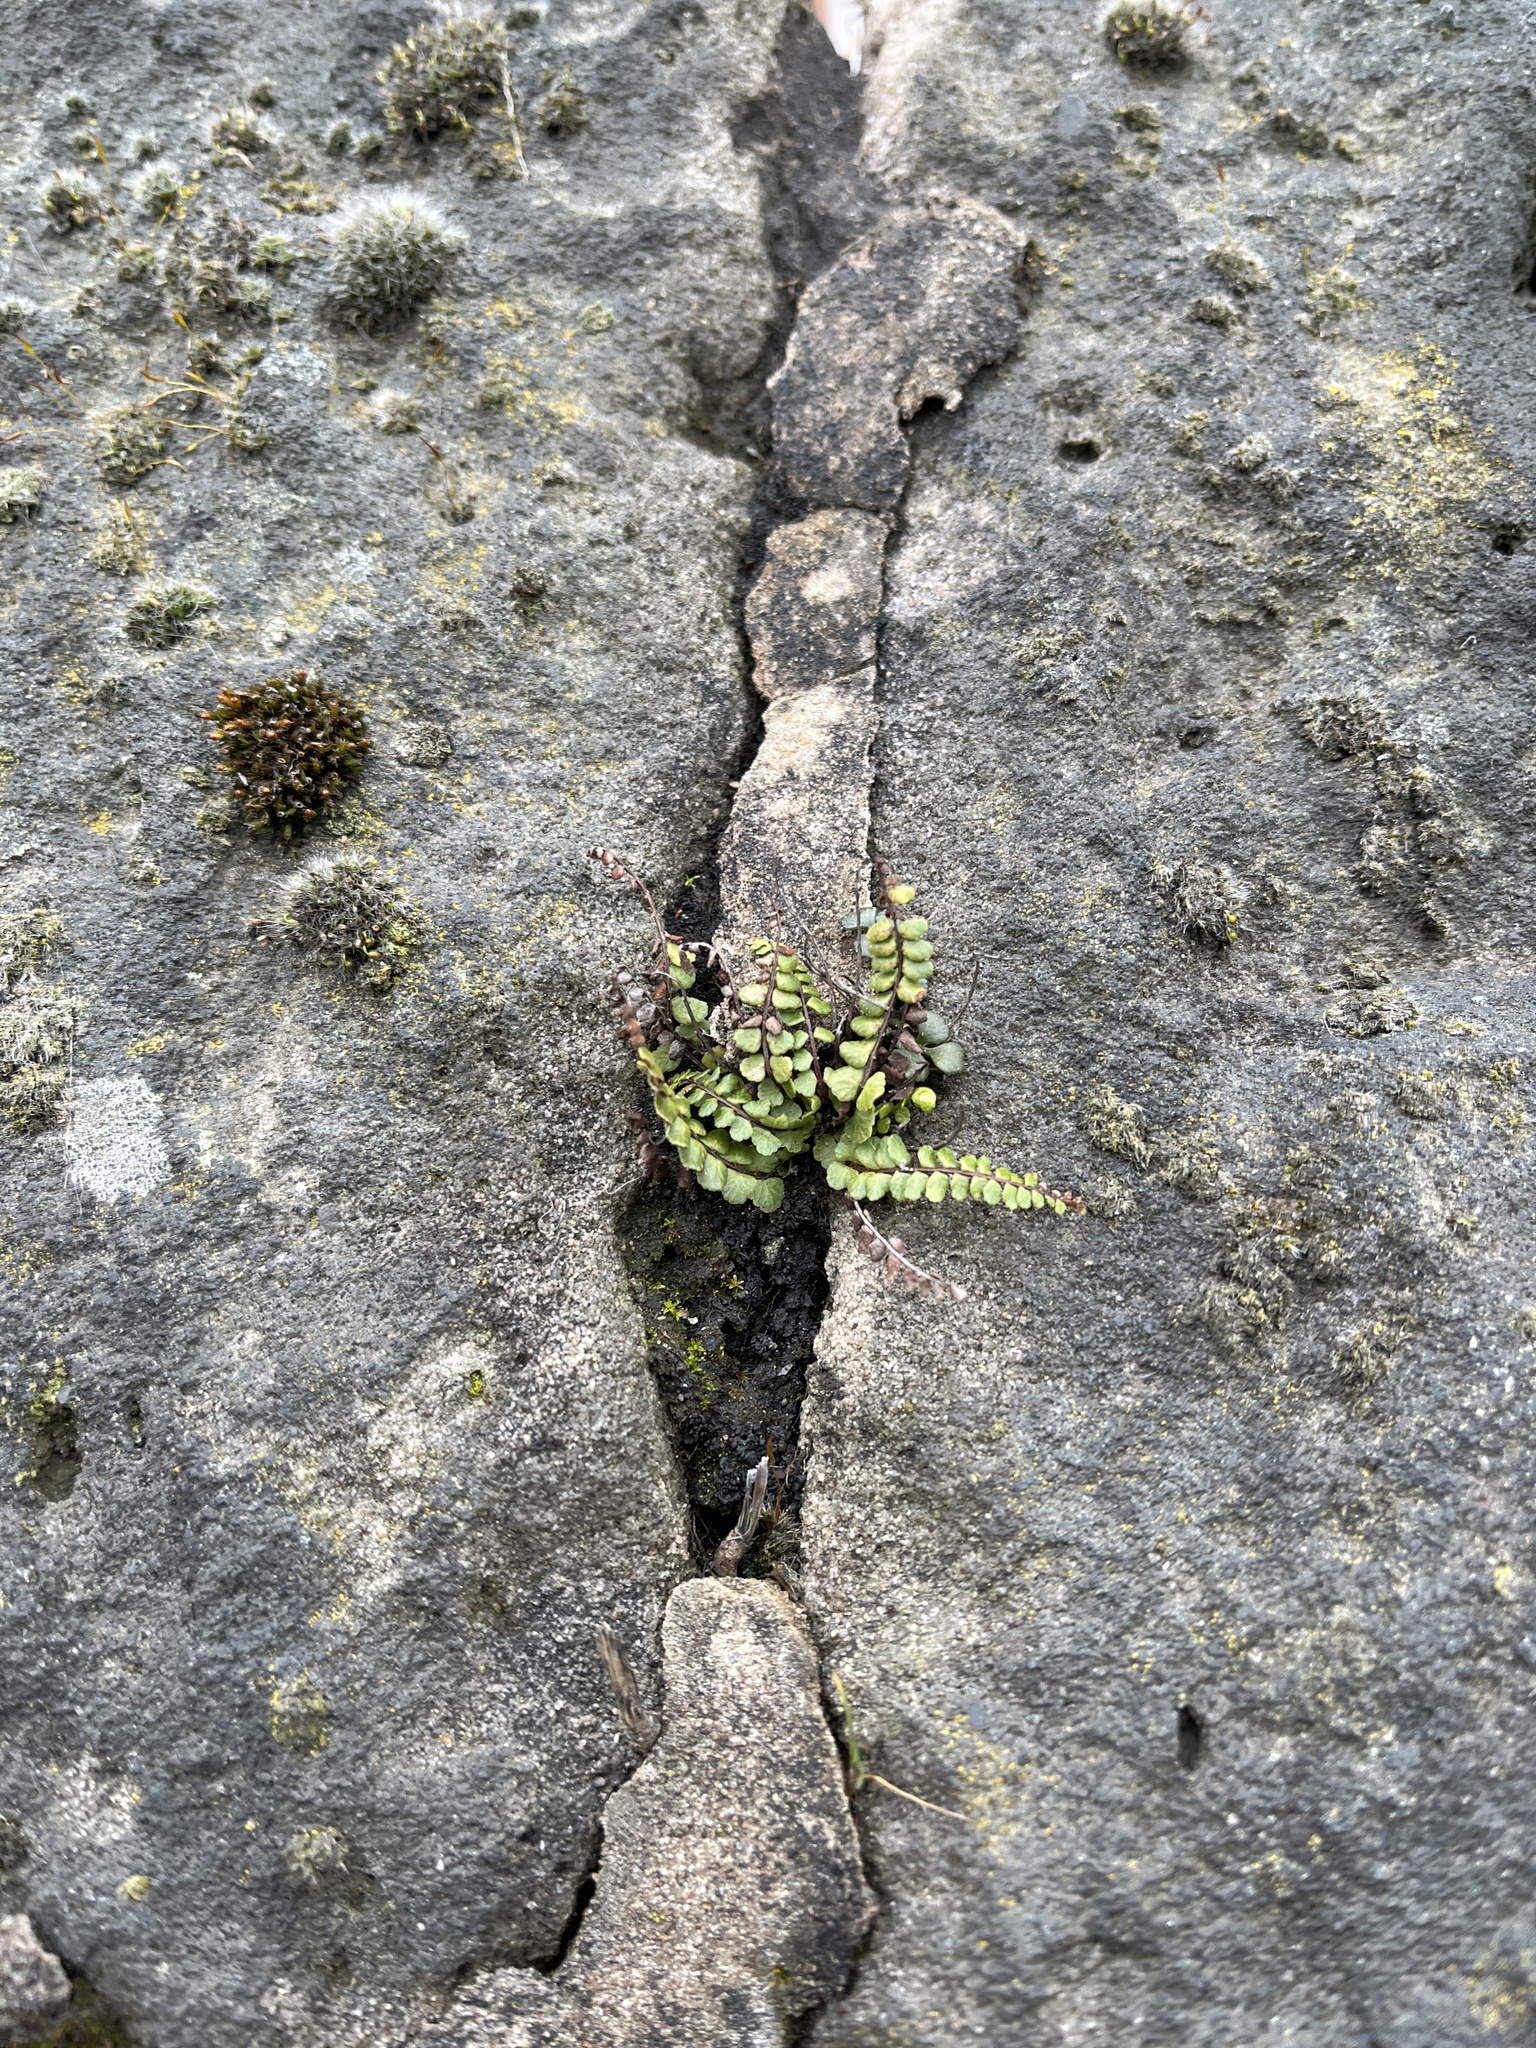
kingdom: Plantae
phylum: Tracheophyta
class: Polypodiopsida
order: Polypodiales
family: Aspleniaceae
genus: Asplenium
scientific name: Asplenium trichomanes
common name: Maidenhair spleenwort
